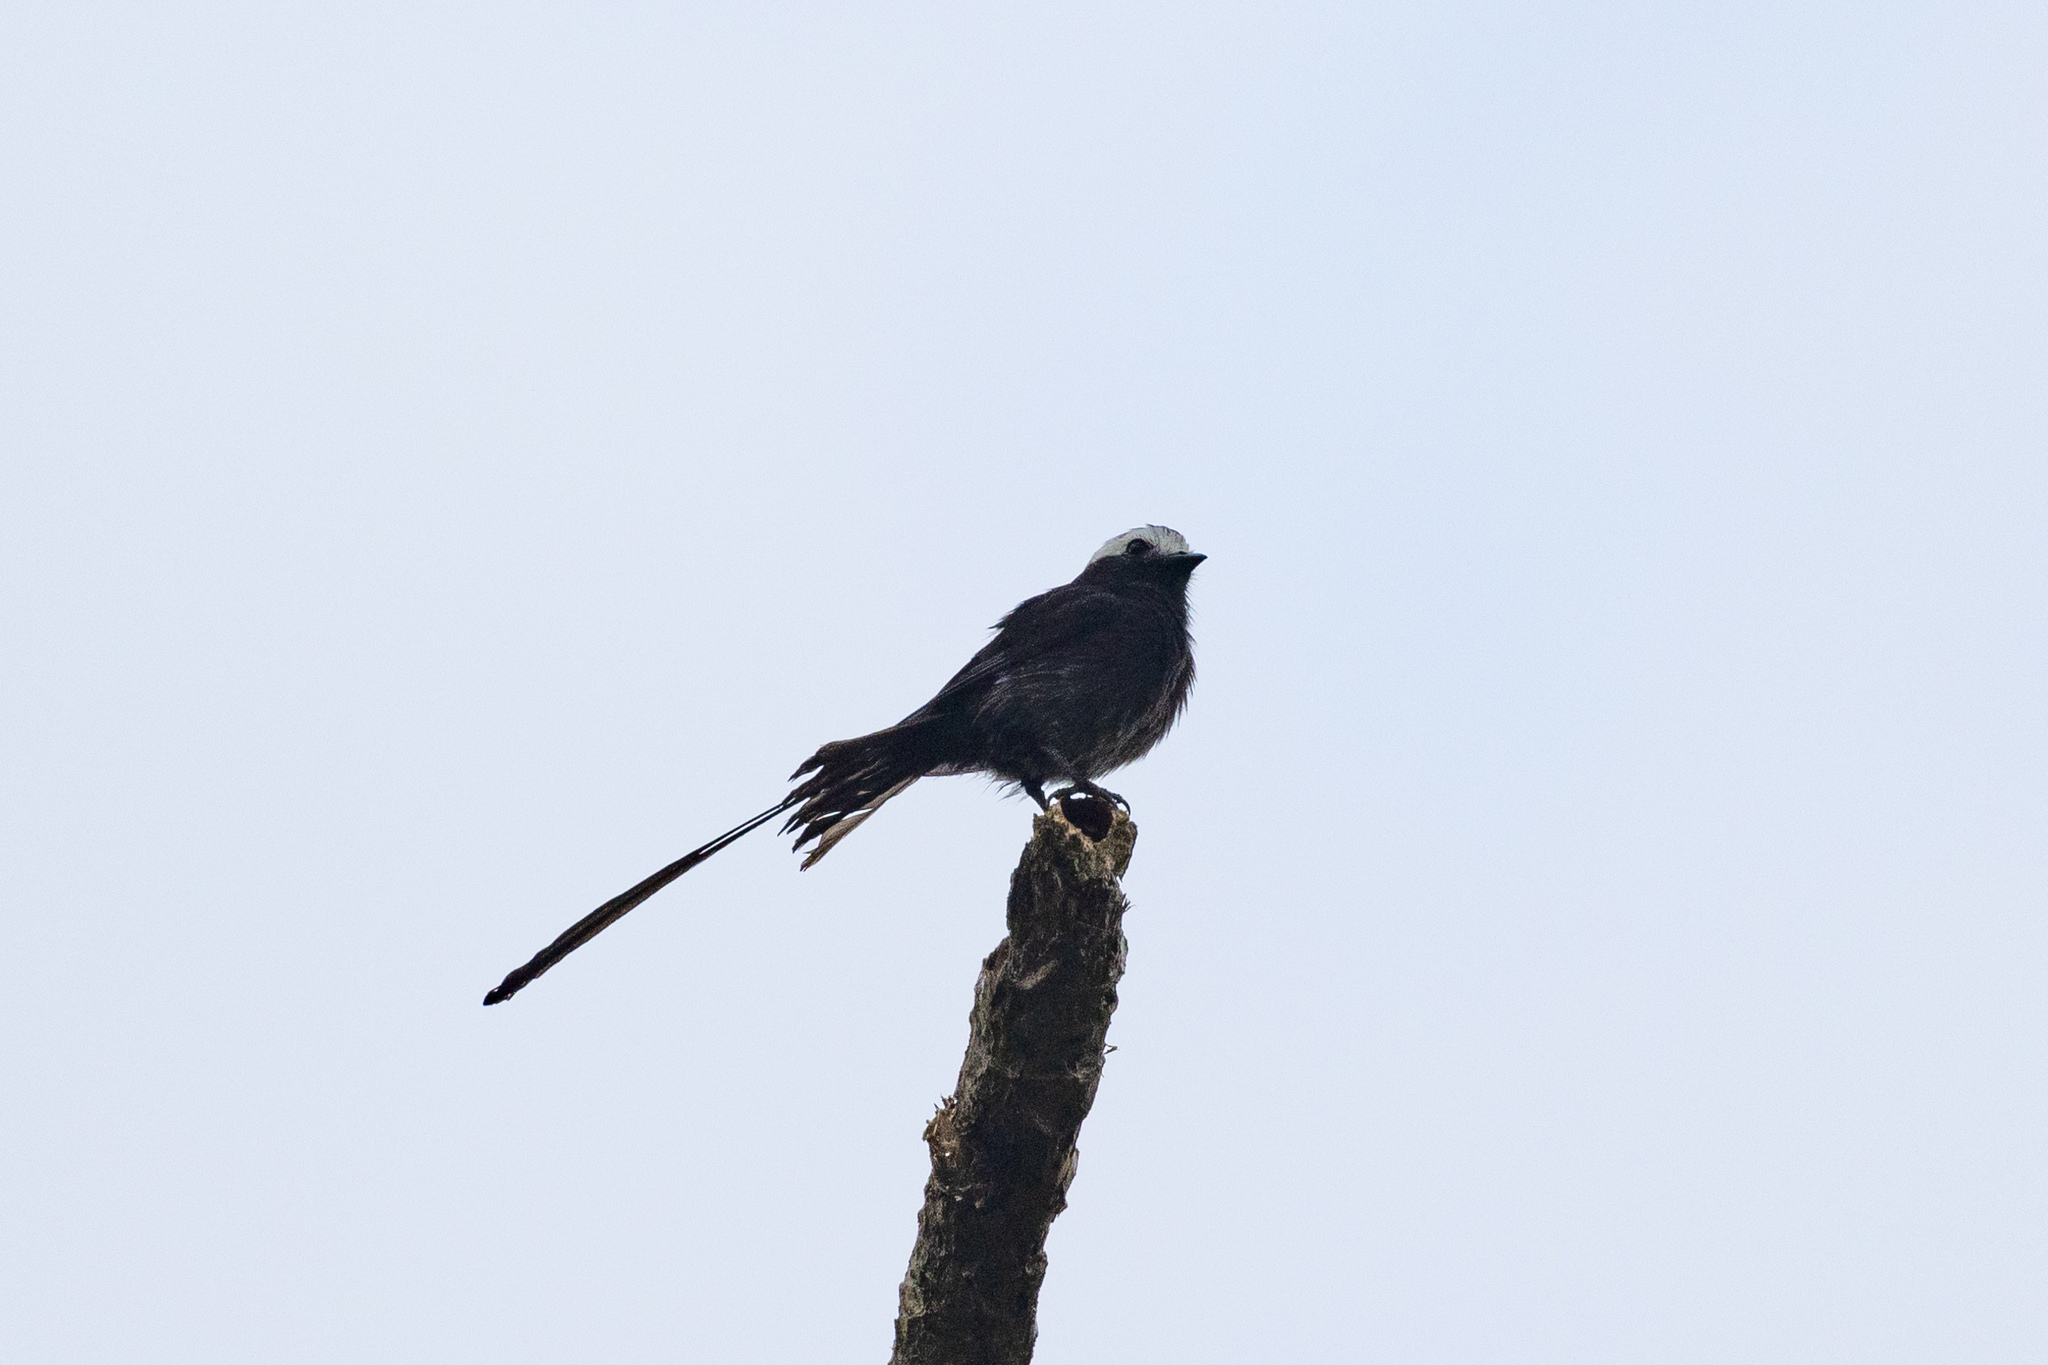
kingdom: Animalia
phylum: Chordata
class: Aves
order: Passeriformes
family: Tyrannidae
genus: Colonia
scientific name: Colonia colonus
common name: Long-tailed tyrant
